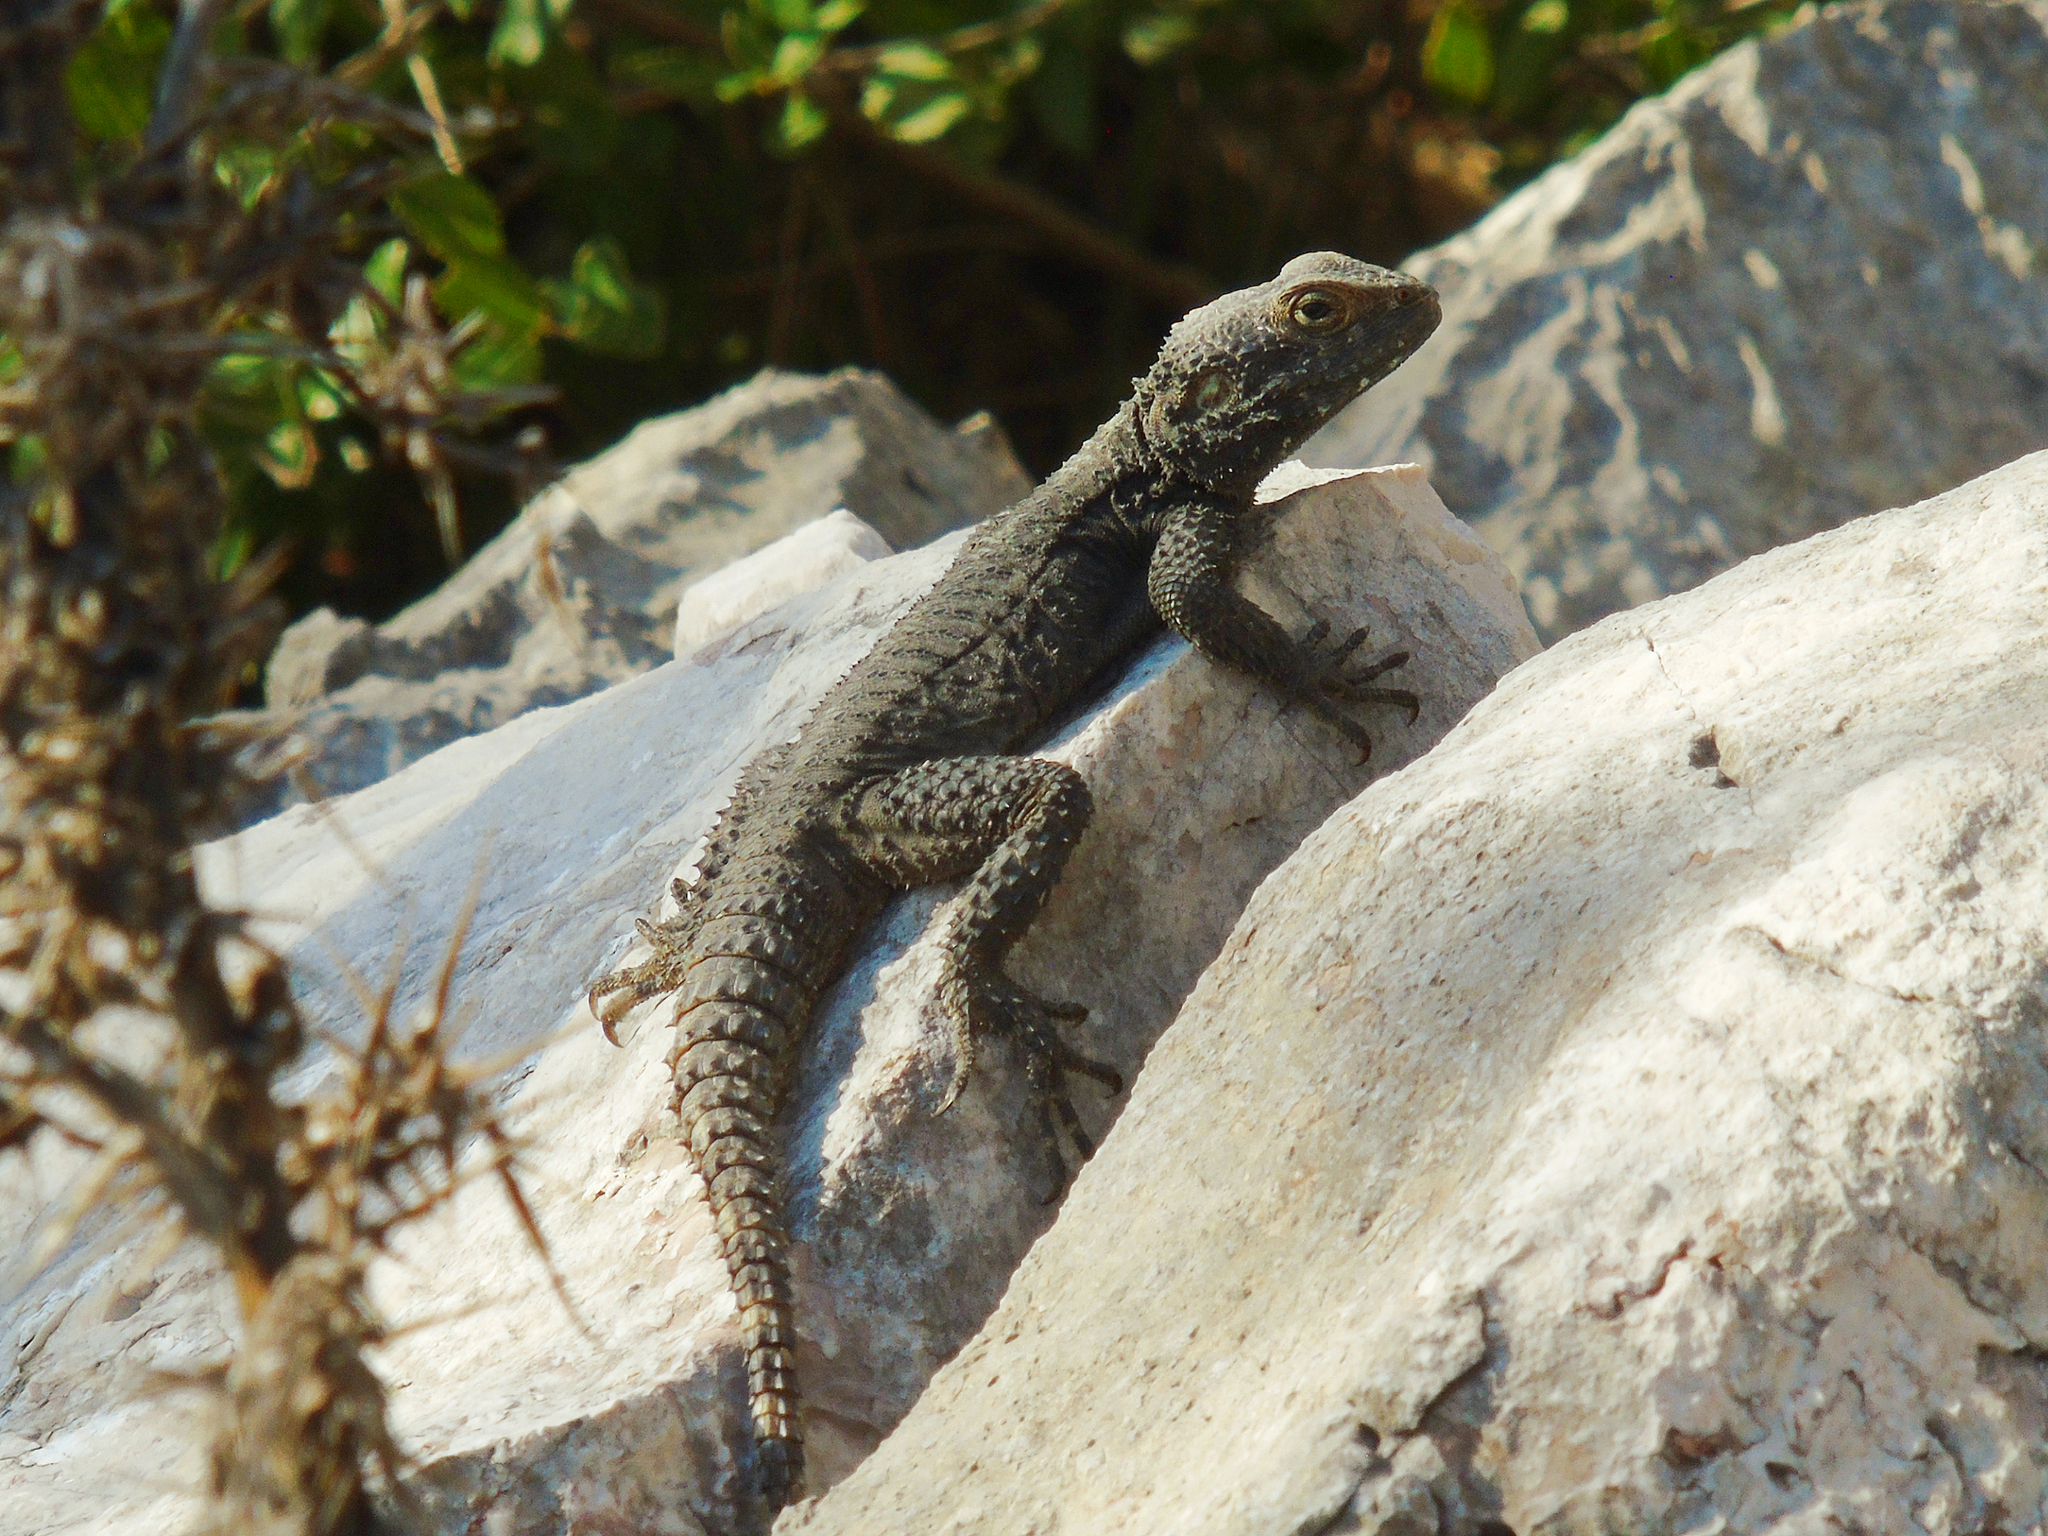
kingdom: Animalia
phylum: Chordata
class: Squamata
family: Agamidae
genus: Stellagama
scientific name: Stellagama stellio
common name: Starred agama
